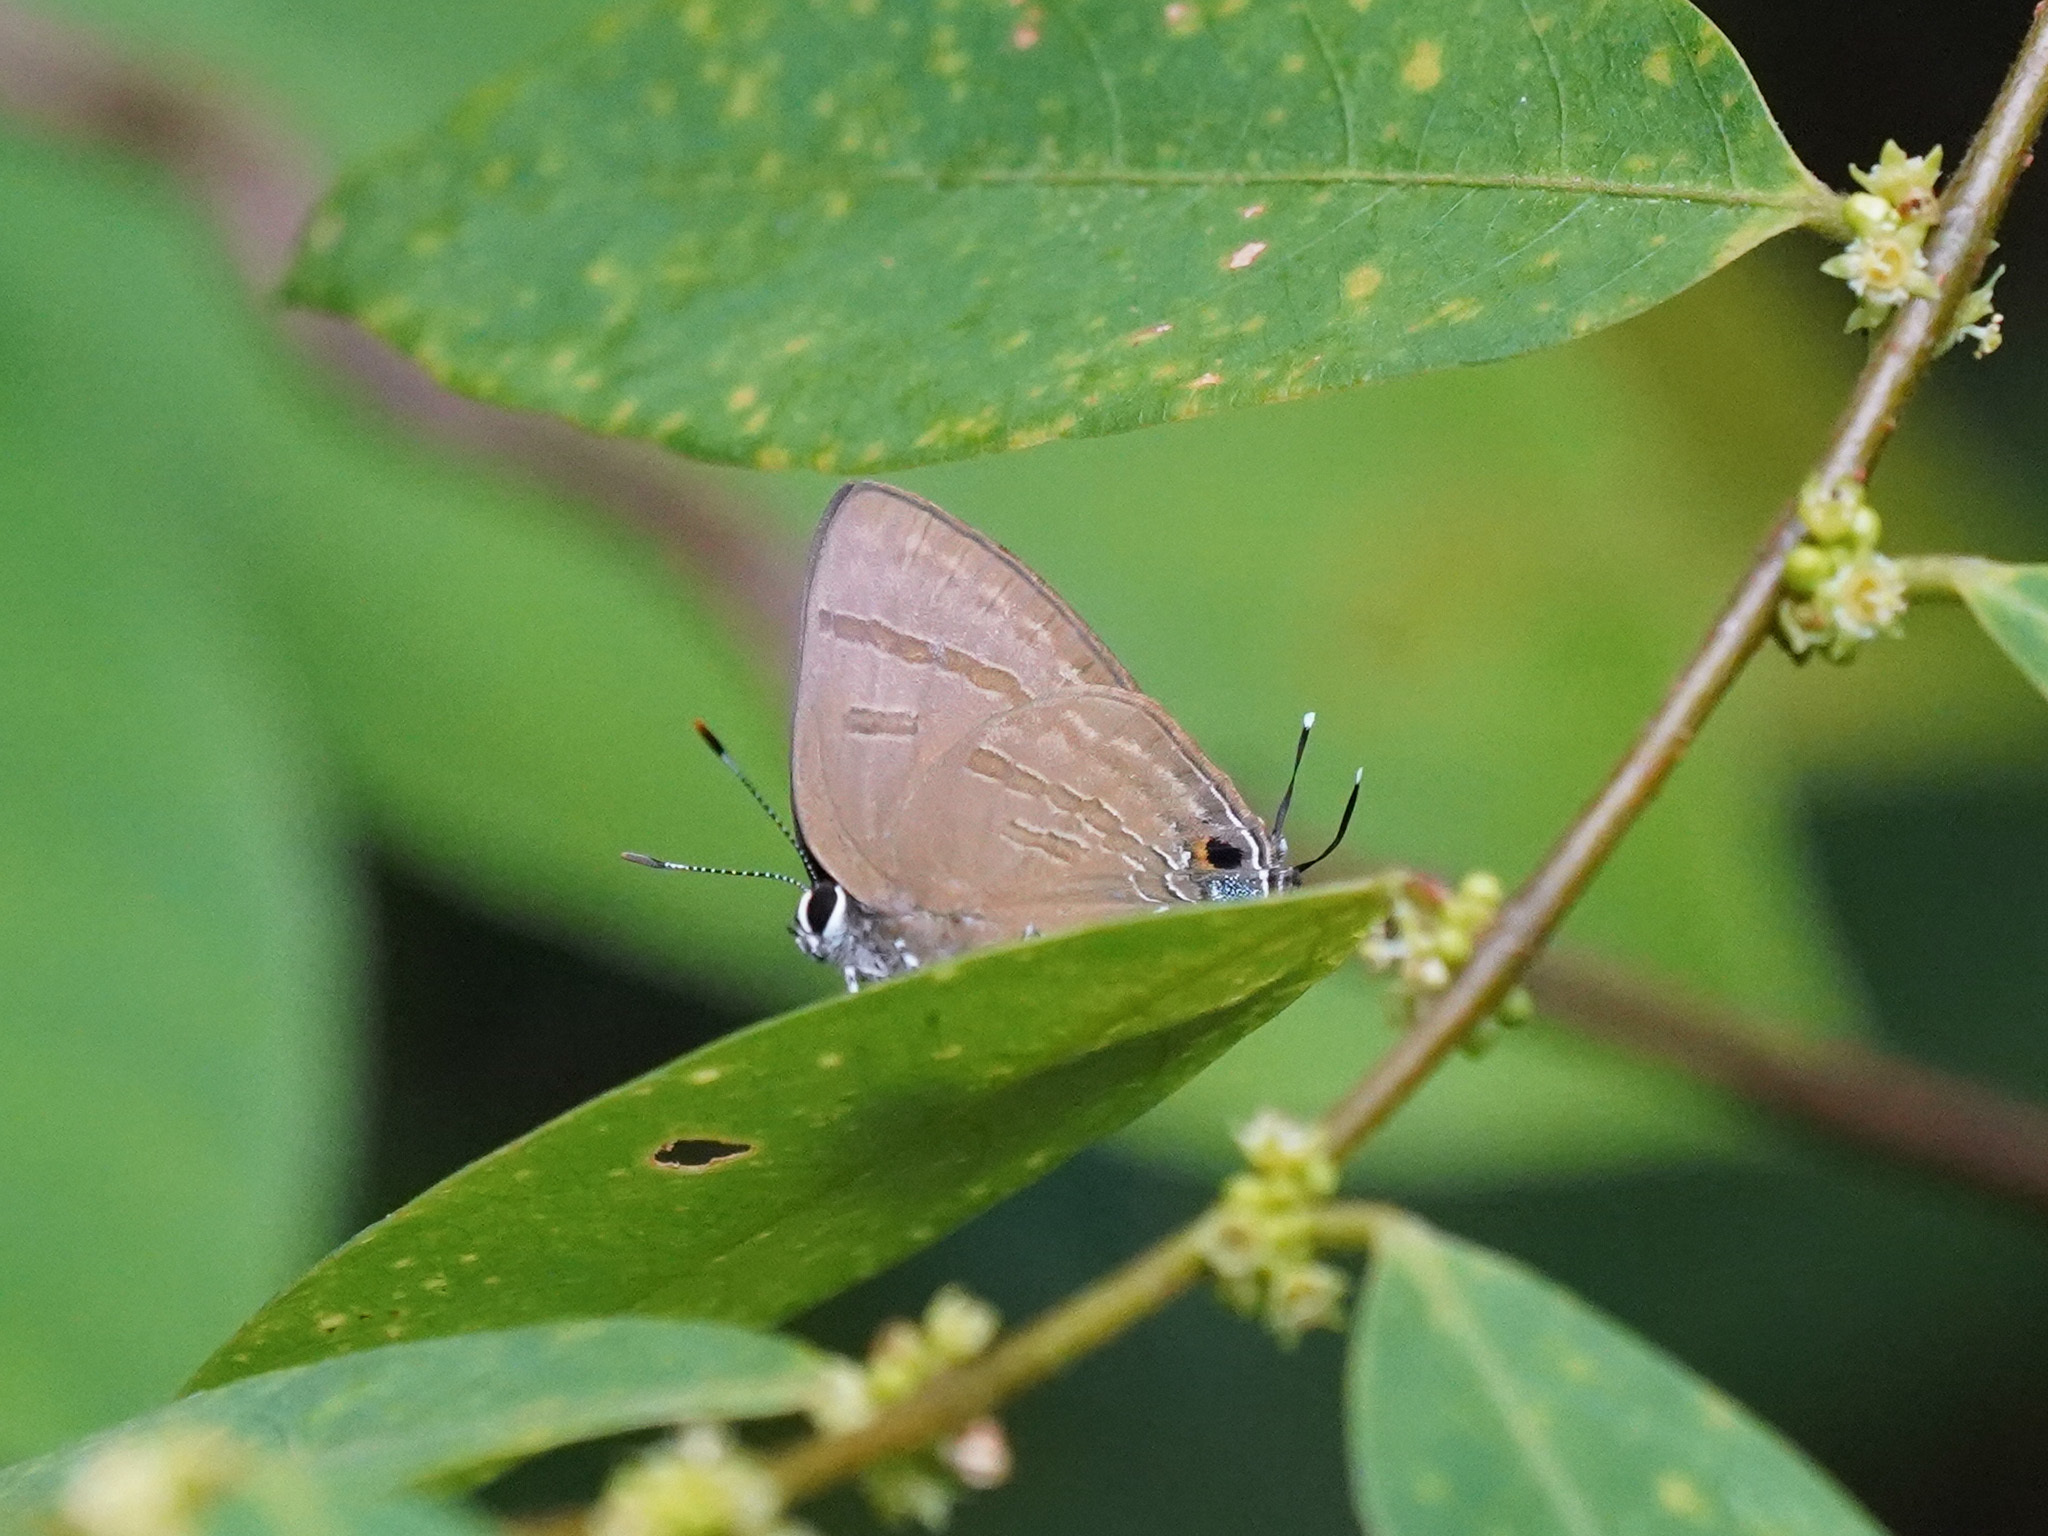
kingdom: Animalia
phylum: Arthropoda
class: Insecta
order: Lepidoptera
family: Lycaenidae
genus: Rapala
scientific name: Rapala varuna
